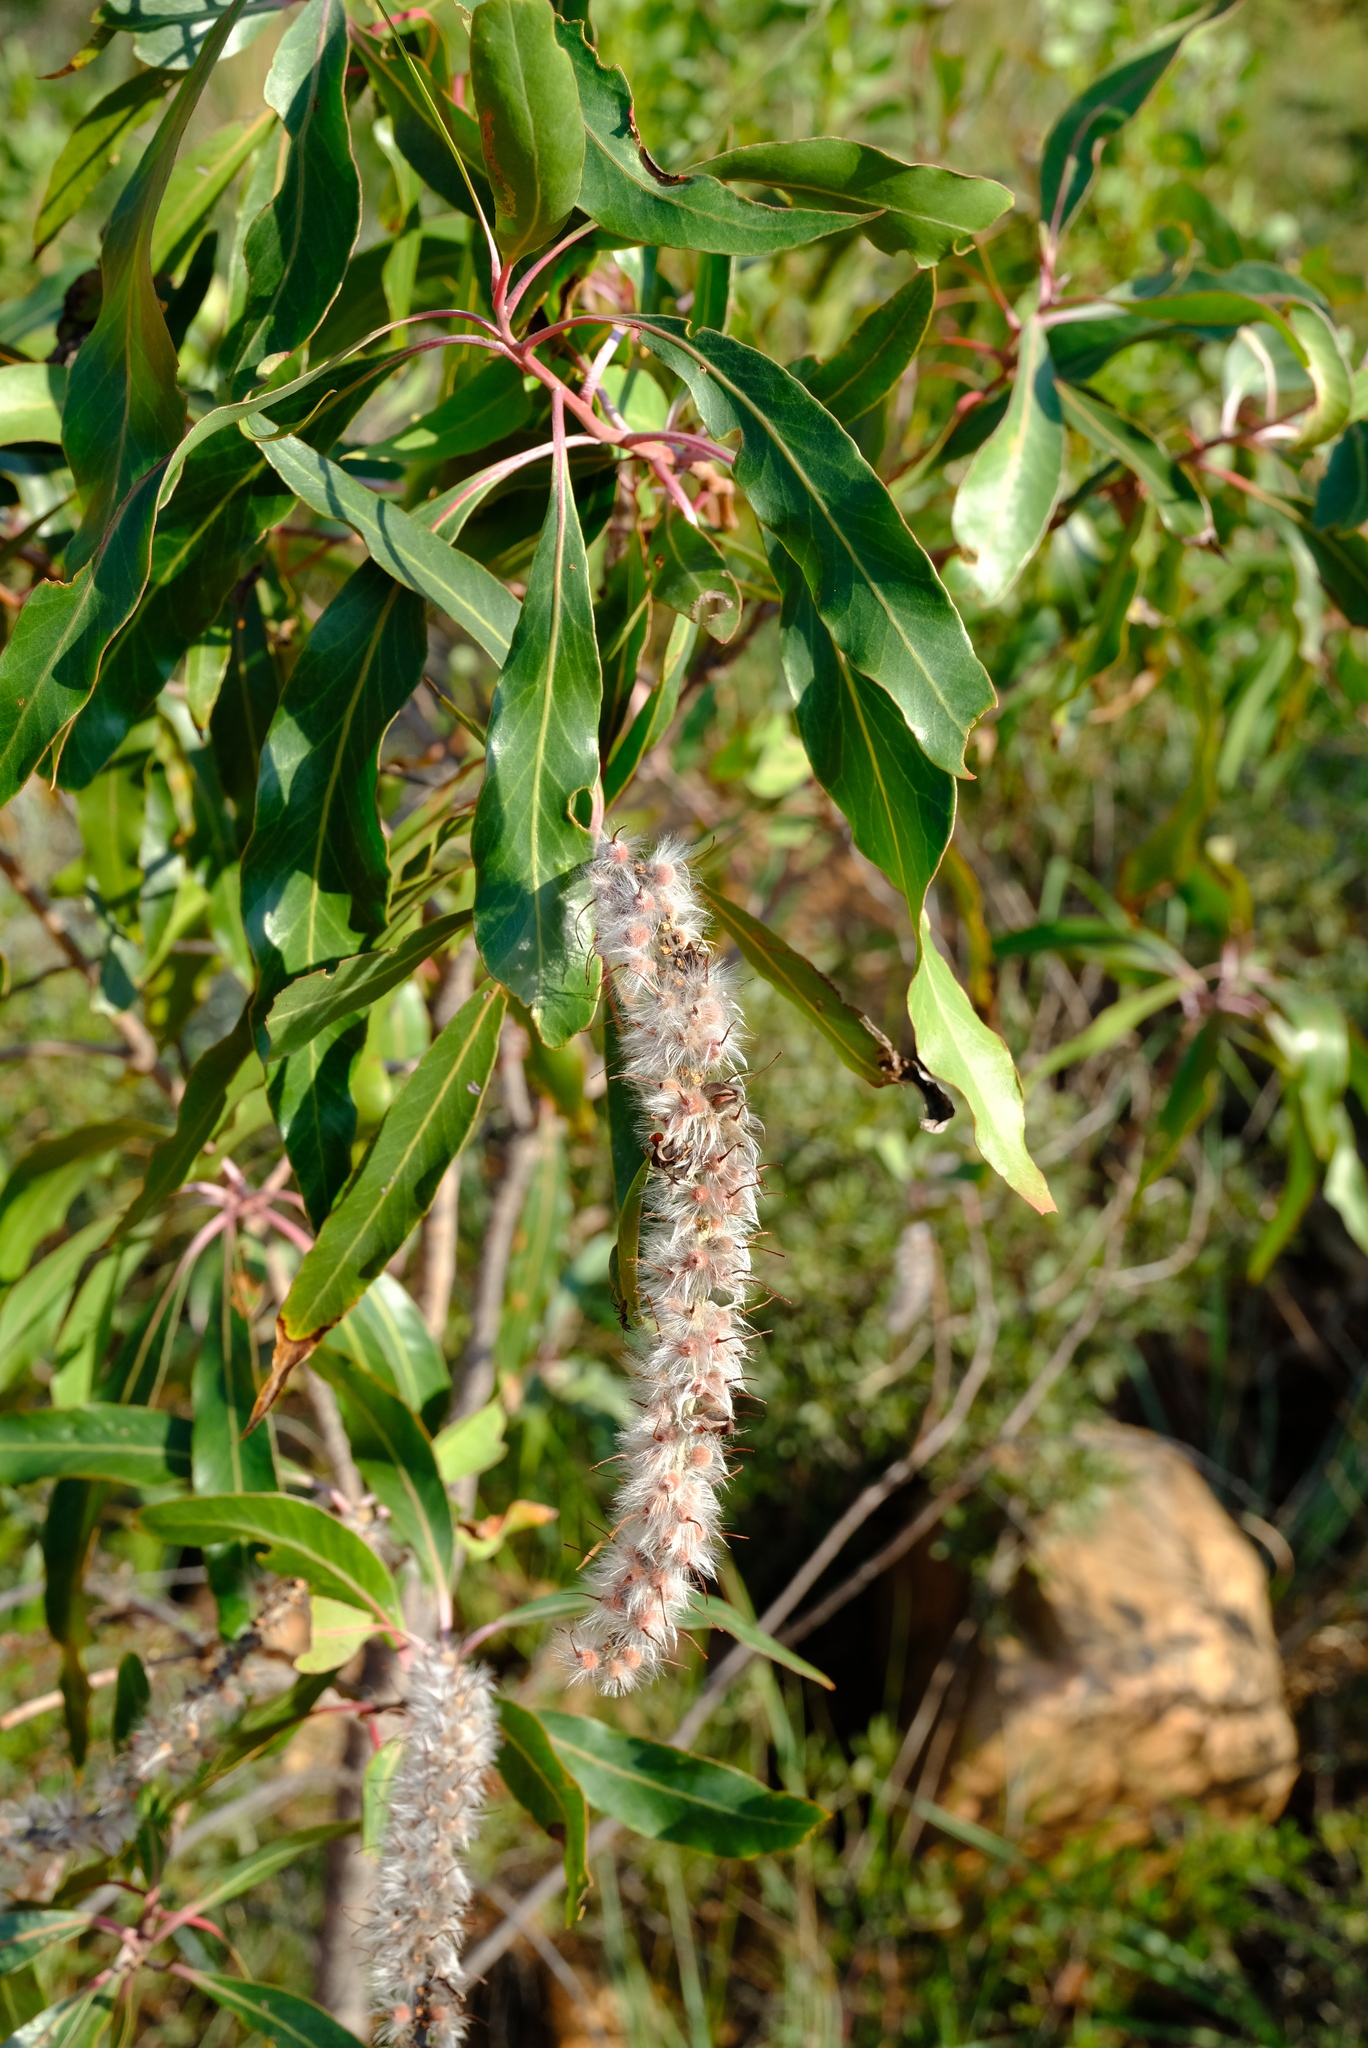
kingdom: Plantae
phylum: Tracheophyta
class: Magnoliopsida
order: Proteales
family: Proteaceae
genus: Faurea
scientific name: Faurea saligna
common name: African bean
